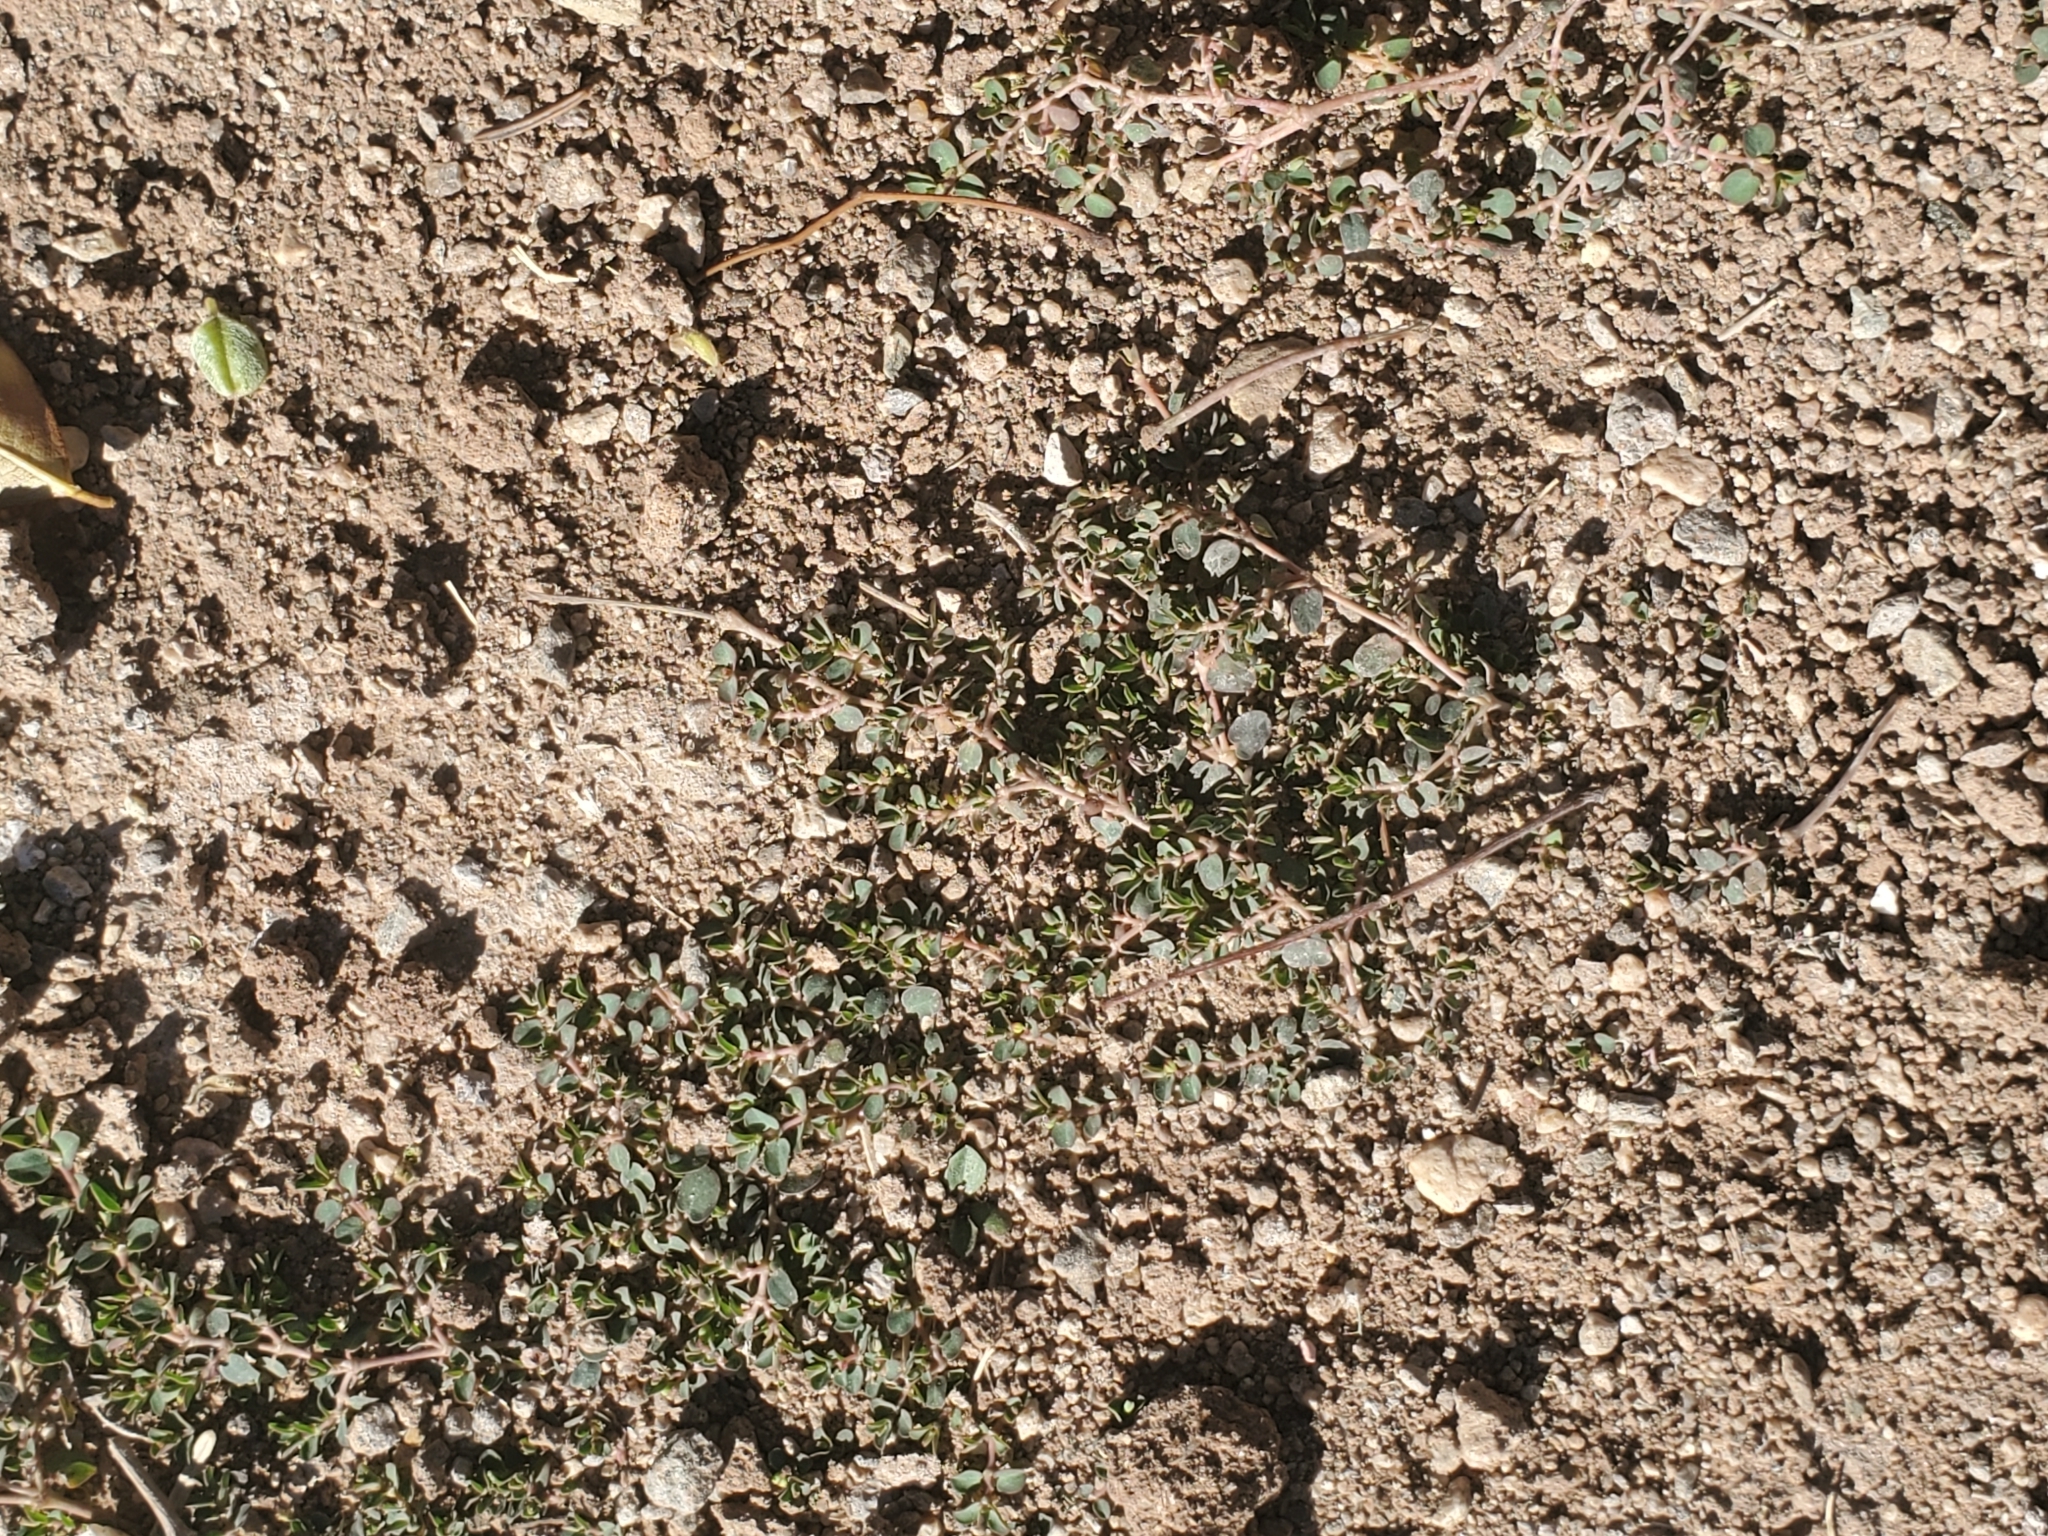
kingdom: Plantae
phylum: Tracheophyta
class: Magnoliopsida
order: Malpighiales
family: Euphorbiaceae
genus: Euphorbia
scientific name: Euphorbia serpens
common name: Matted sandmat
